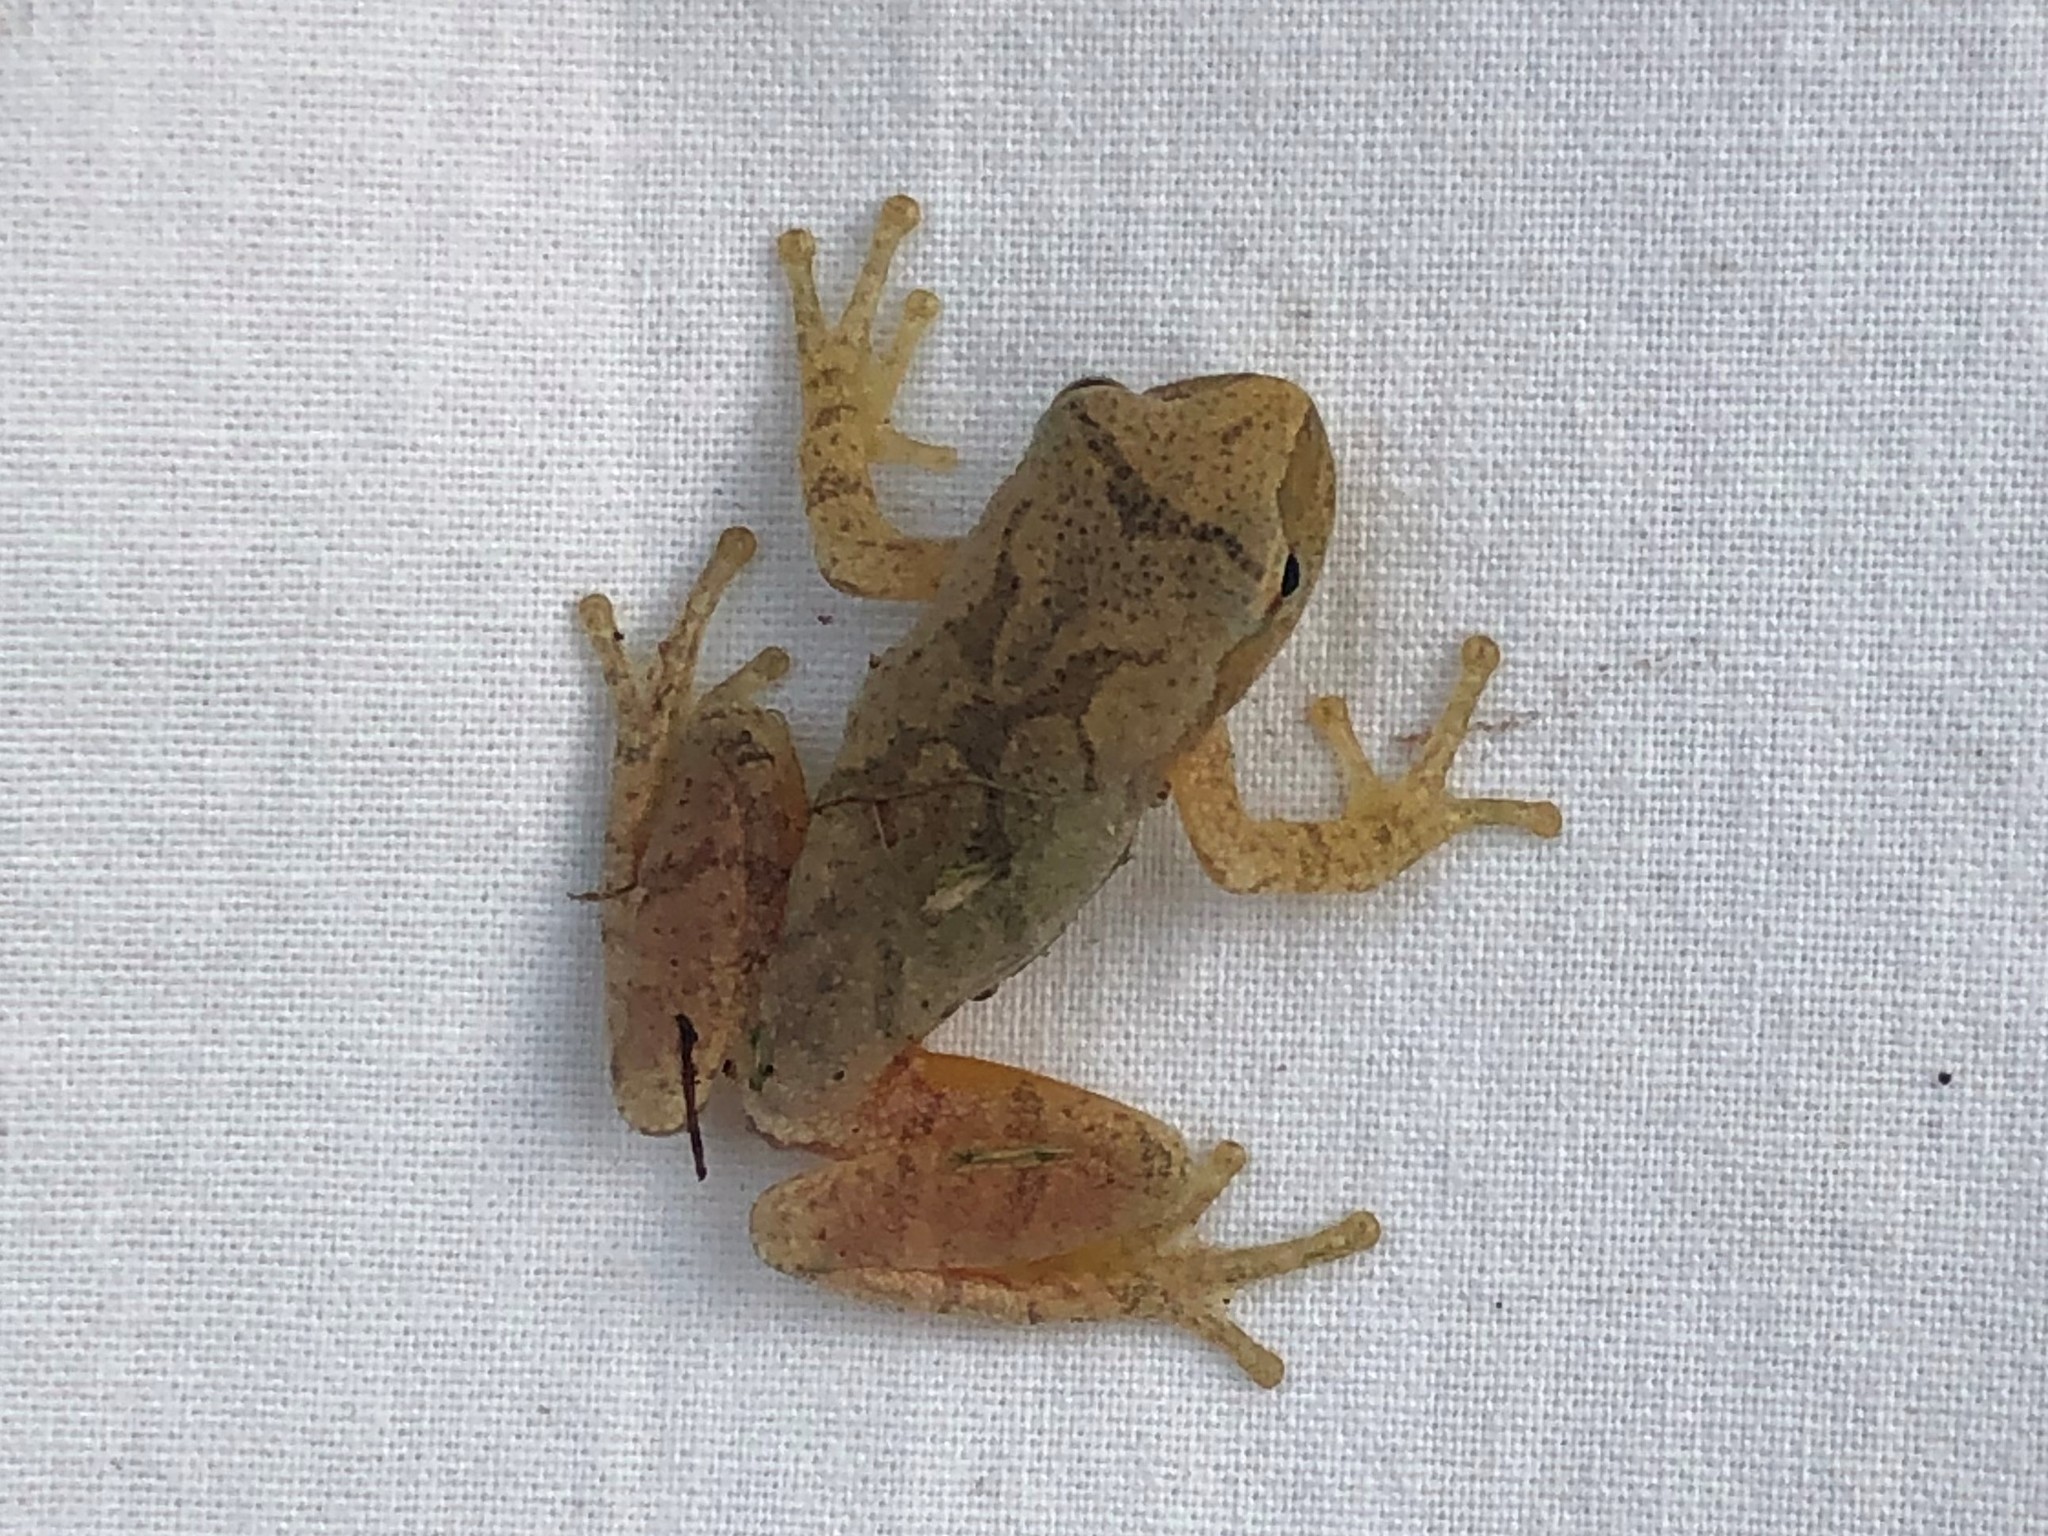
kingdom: Animalia
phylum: Chordata
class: Amphibia
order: Anura
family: Hylidae
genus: Pseudacris
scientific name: Pseudacris crucifer
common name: Spring peeper
